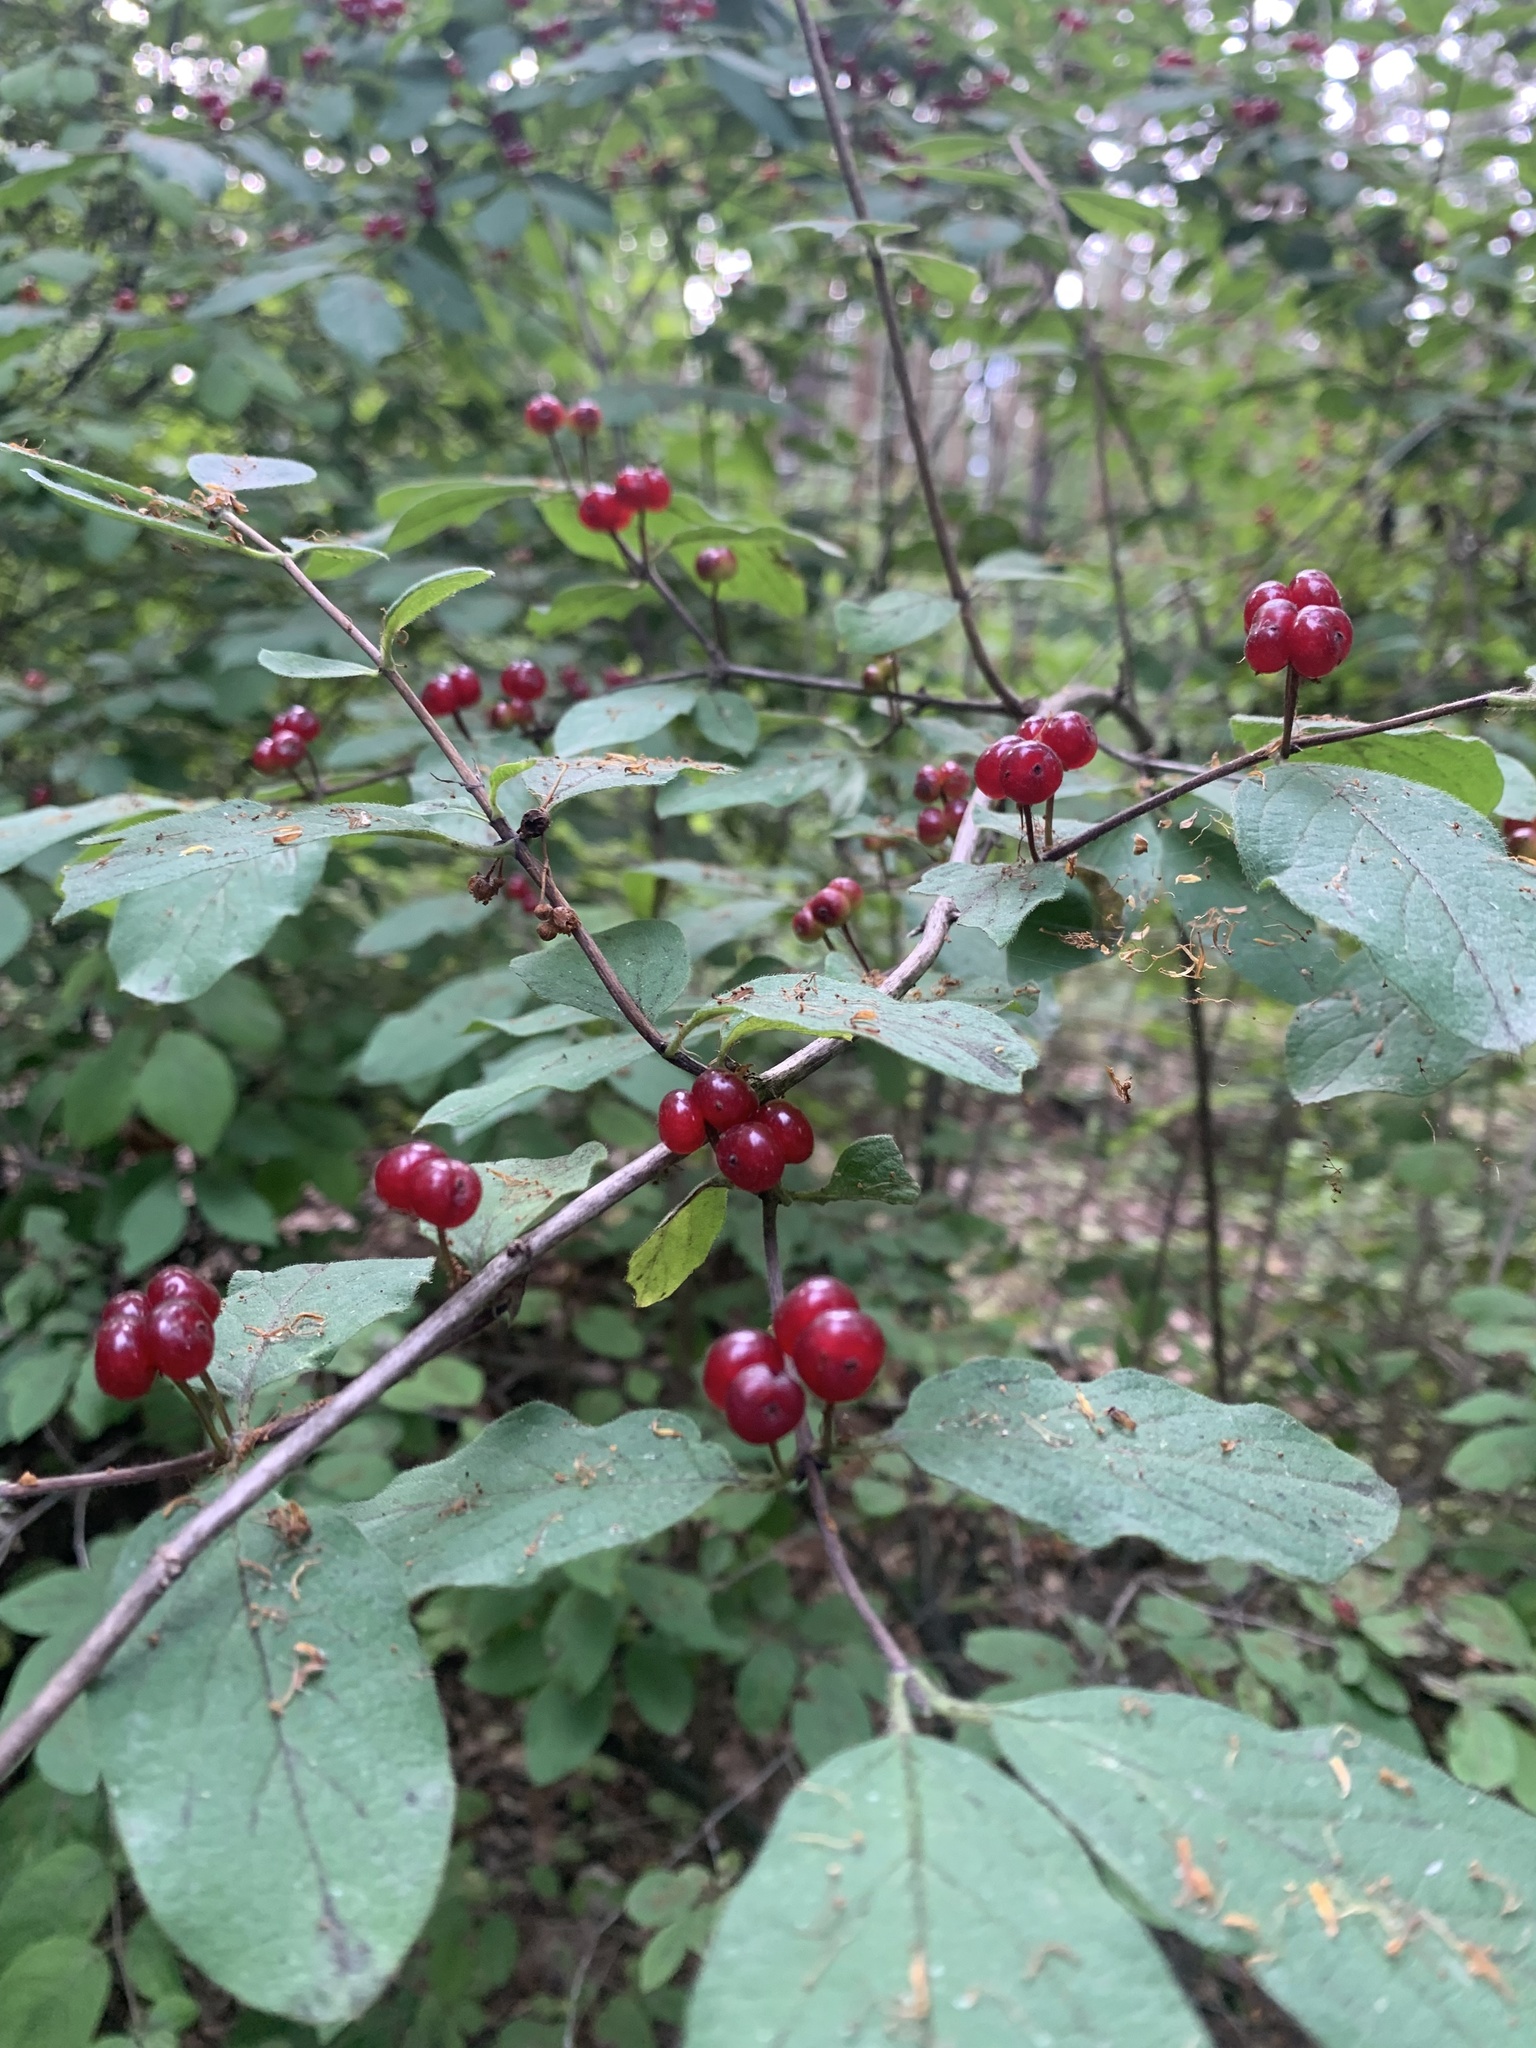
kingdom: Plantae
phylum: Tracheophyta
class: Magnoliopsida
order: Dipsacales
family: Caprifoliaceae
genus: Lonicera
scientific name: Lonicera xylosteum
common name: Fly honeysuckle
